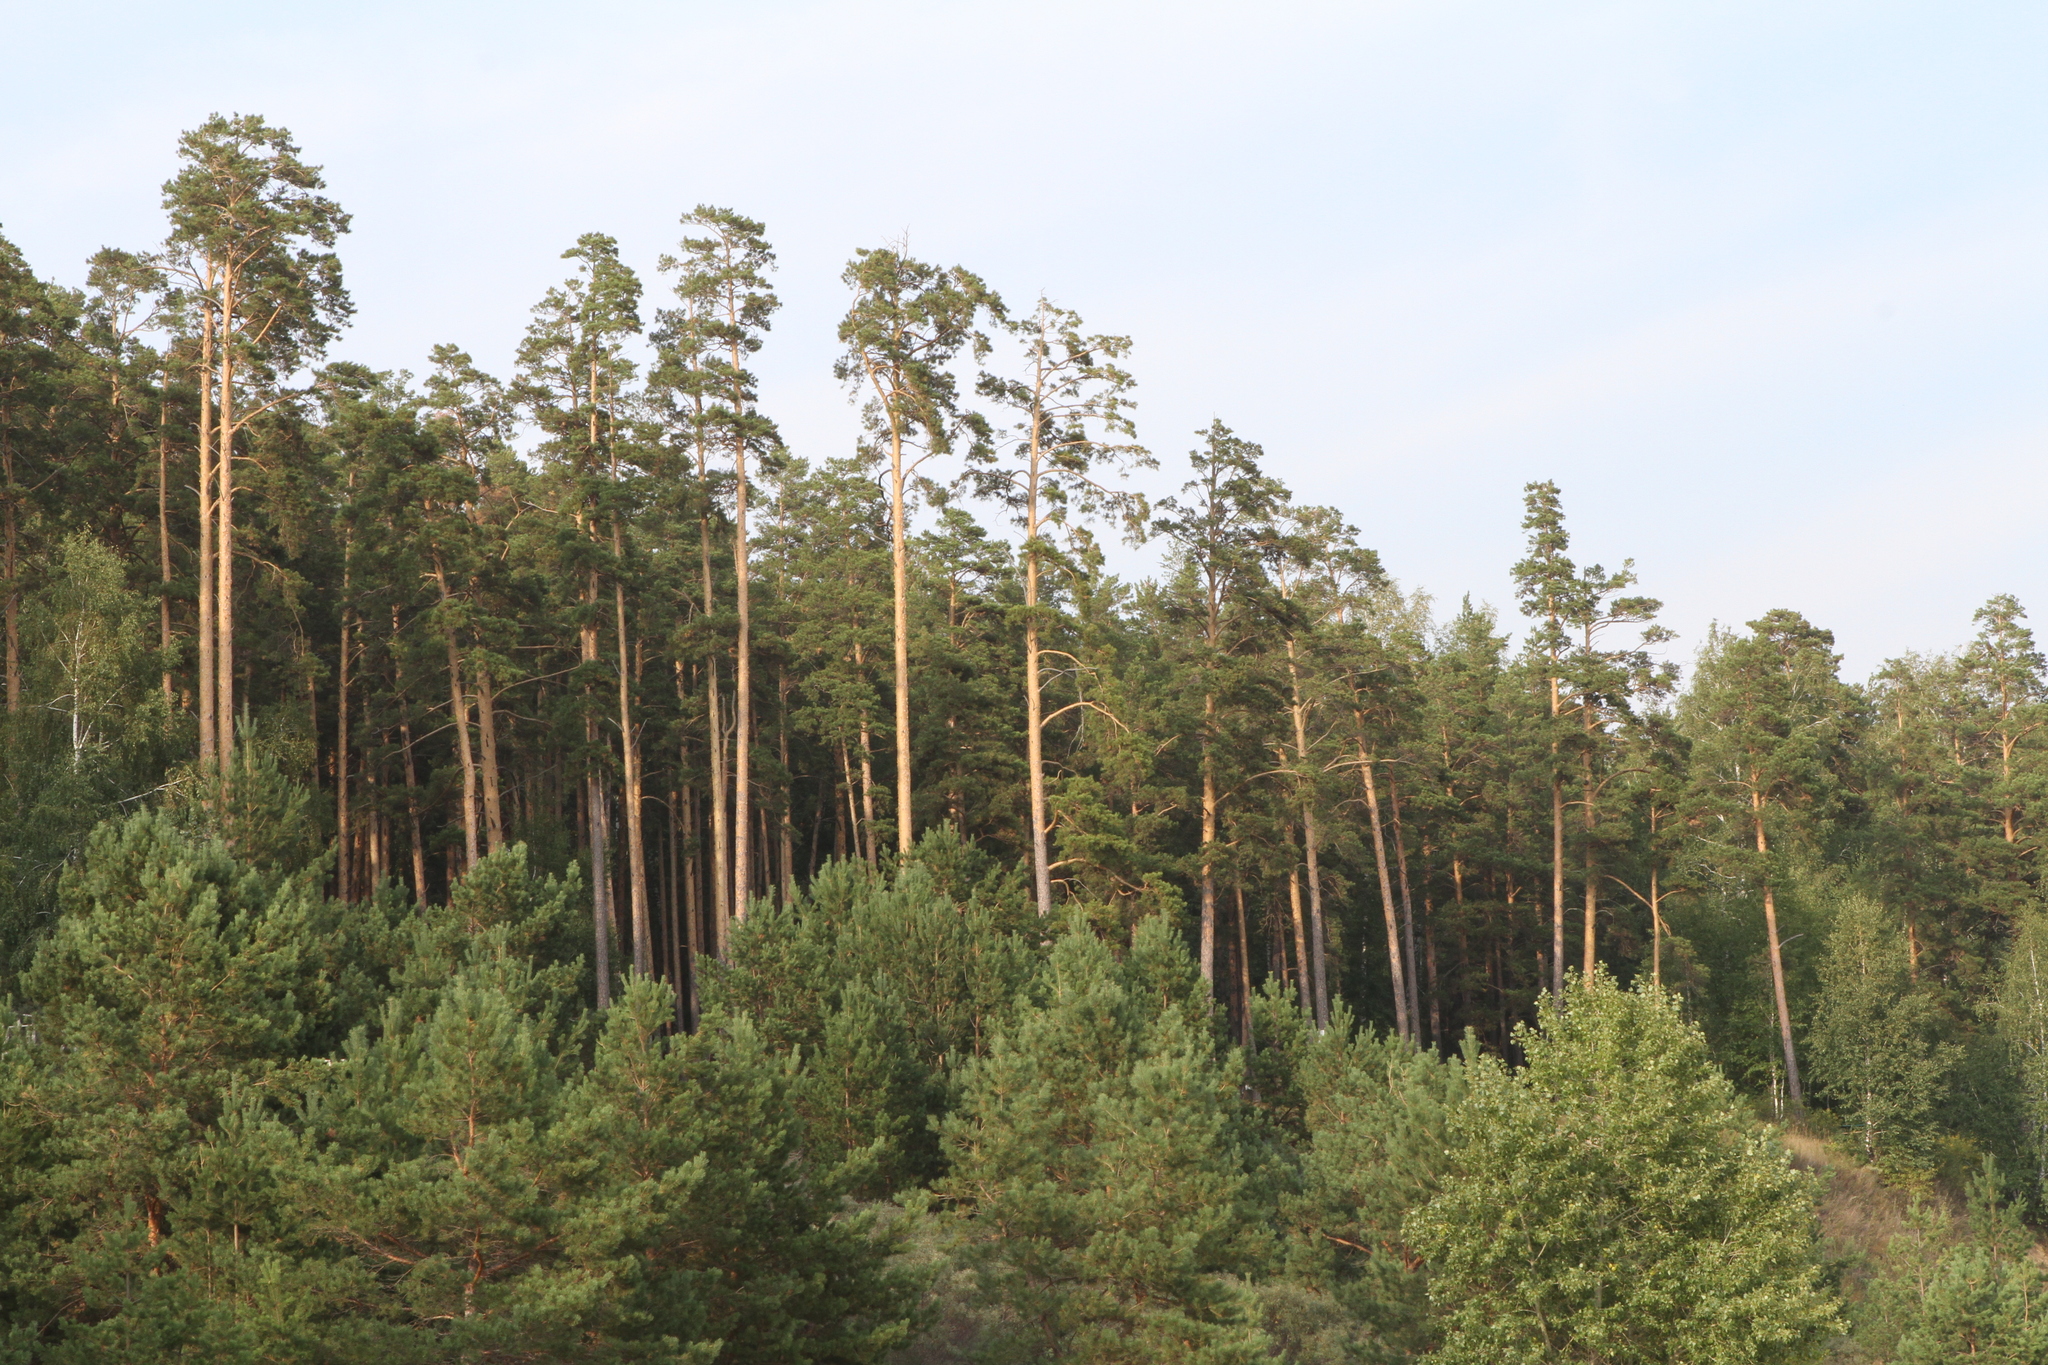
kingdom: Plantae
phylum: Tracheophyta
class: Pinopsida
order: Pinales
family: Pinaceae
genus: Pinus
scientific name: Pinus sylvestris
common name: Scots pine
